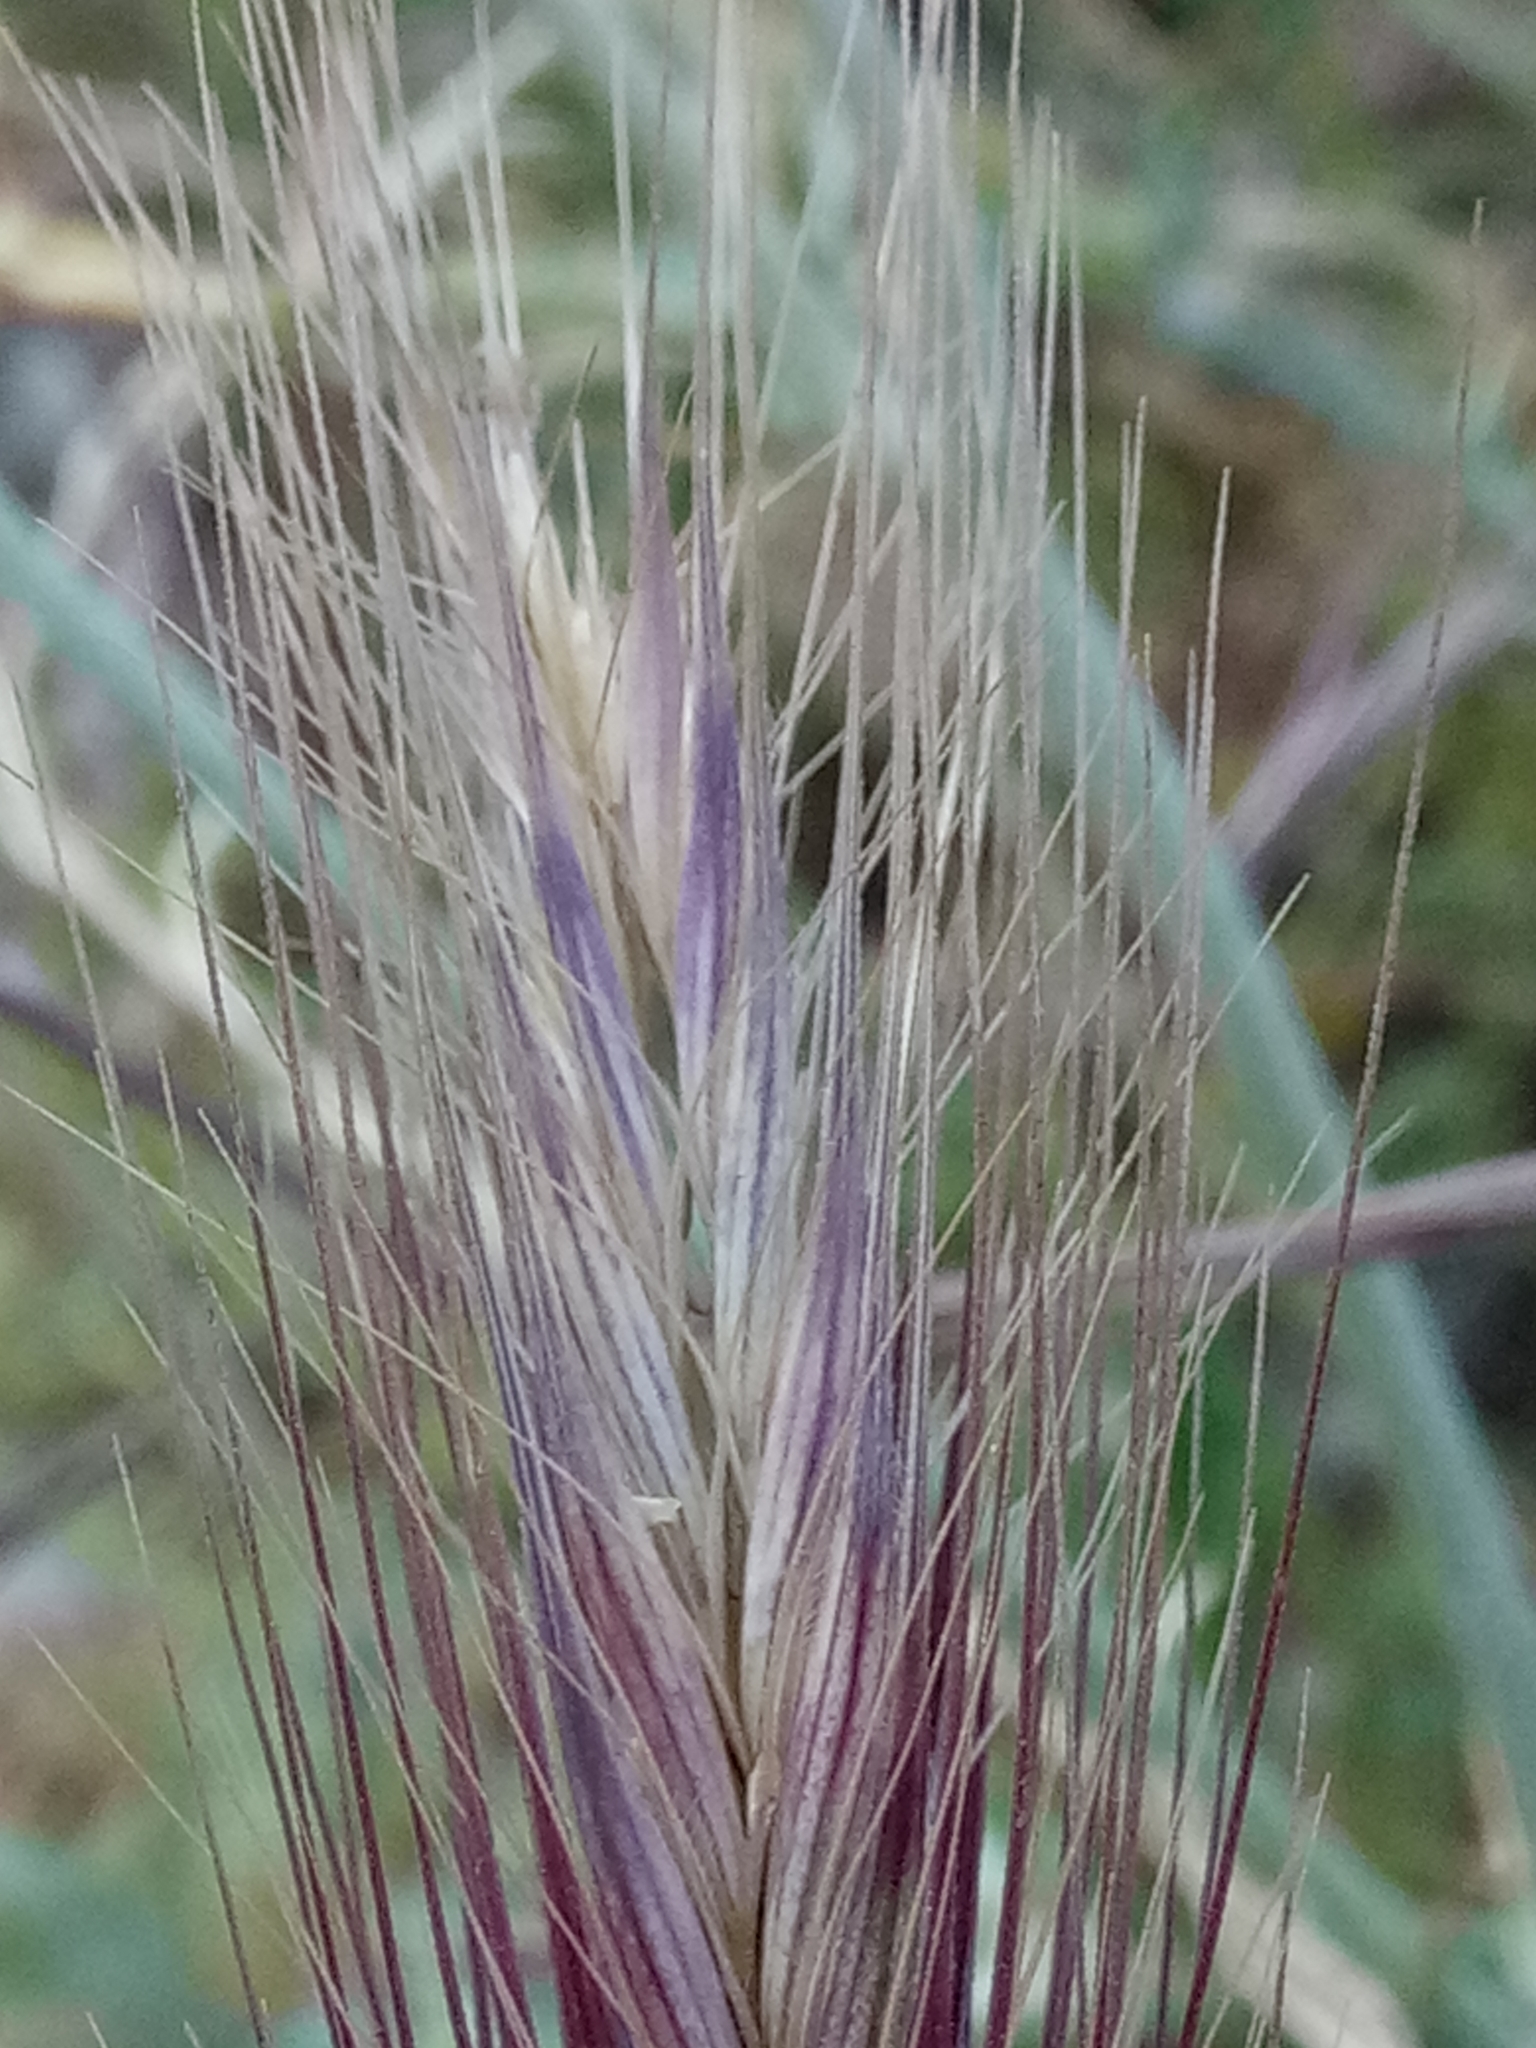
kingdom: Plantae
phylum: Tracheophyta
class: Liliopsida
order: Poales
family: Poaceae
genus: Hordeum
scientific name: Hordeum murinum
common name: Wall barley
